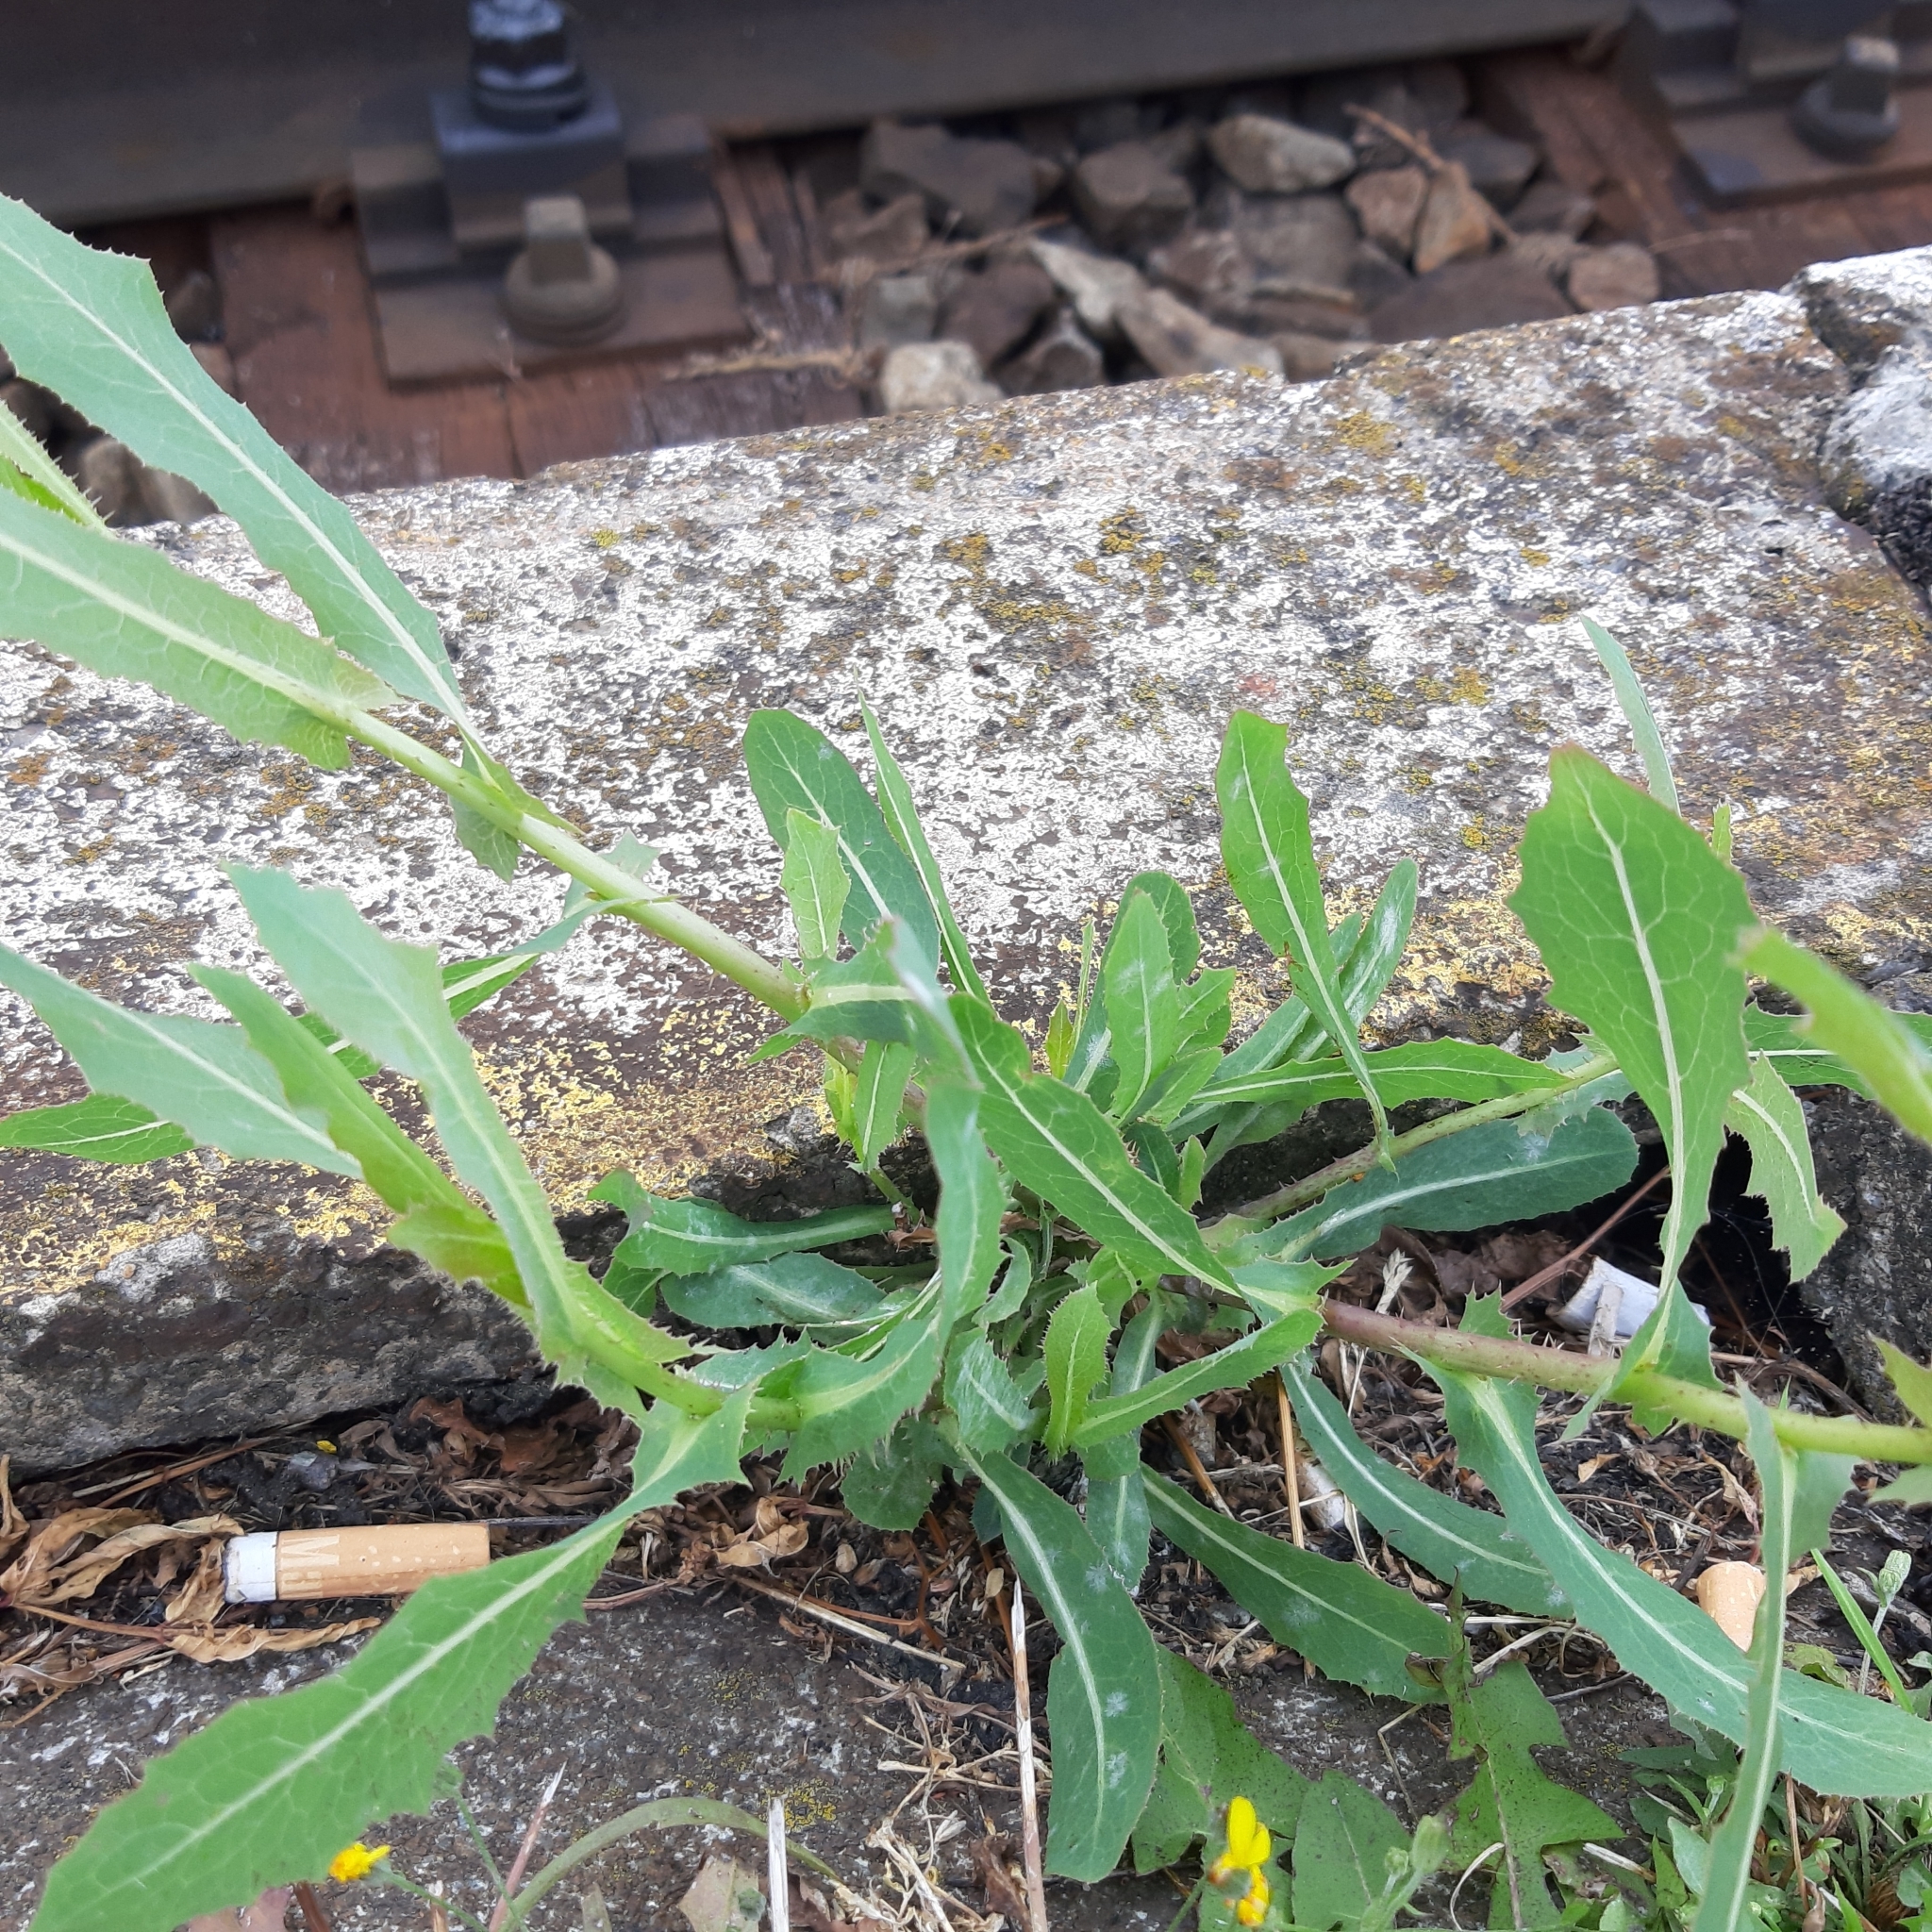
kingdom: Plantae
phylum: Tracheophyta
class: Magnoliopsida
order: Asterales
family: Asteraceae
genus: Lactuca
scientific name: Lactuca serriola
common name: Prickly lettuce
